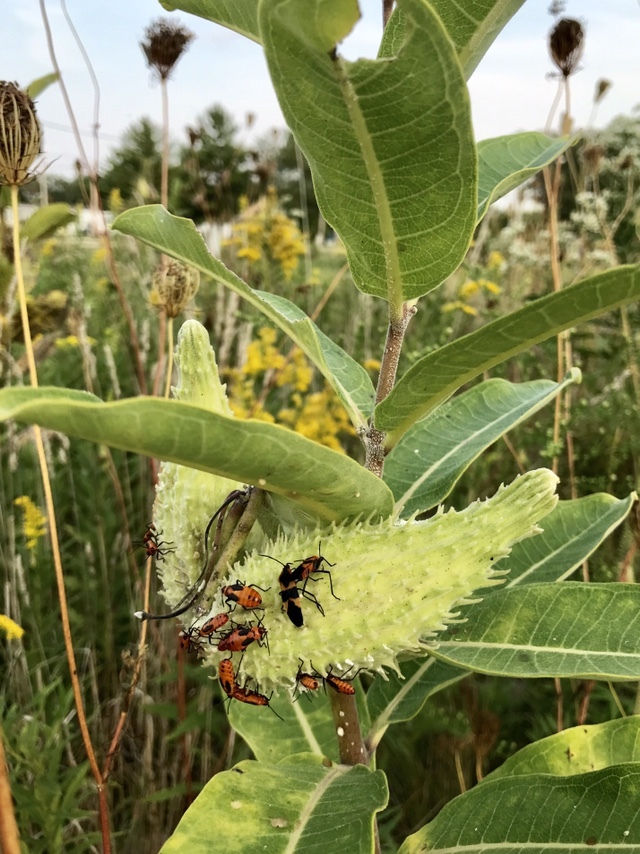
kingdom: Animalia
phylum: Arthropoda
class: Insecta
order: Hemiptera
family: Lygaeidae
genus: Oncopeltus
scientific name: Oncopeltus fasciatus
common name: Large milkweed bug
